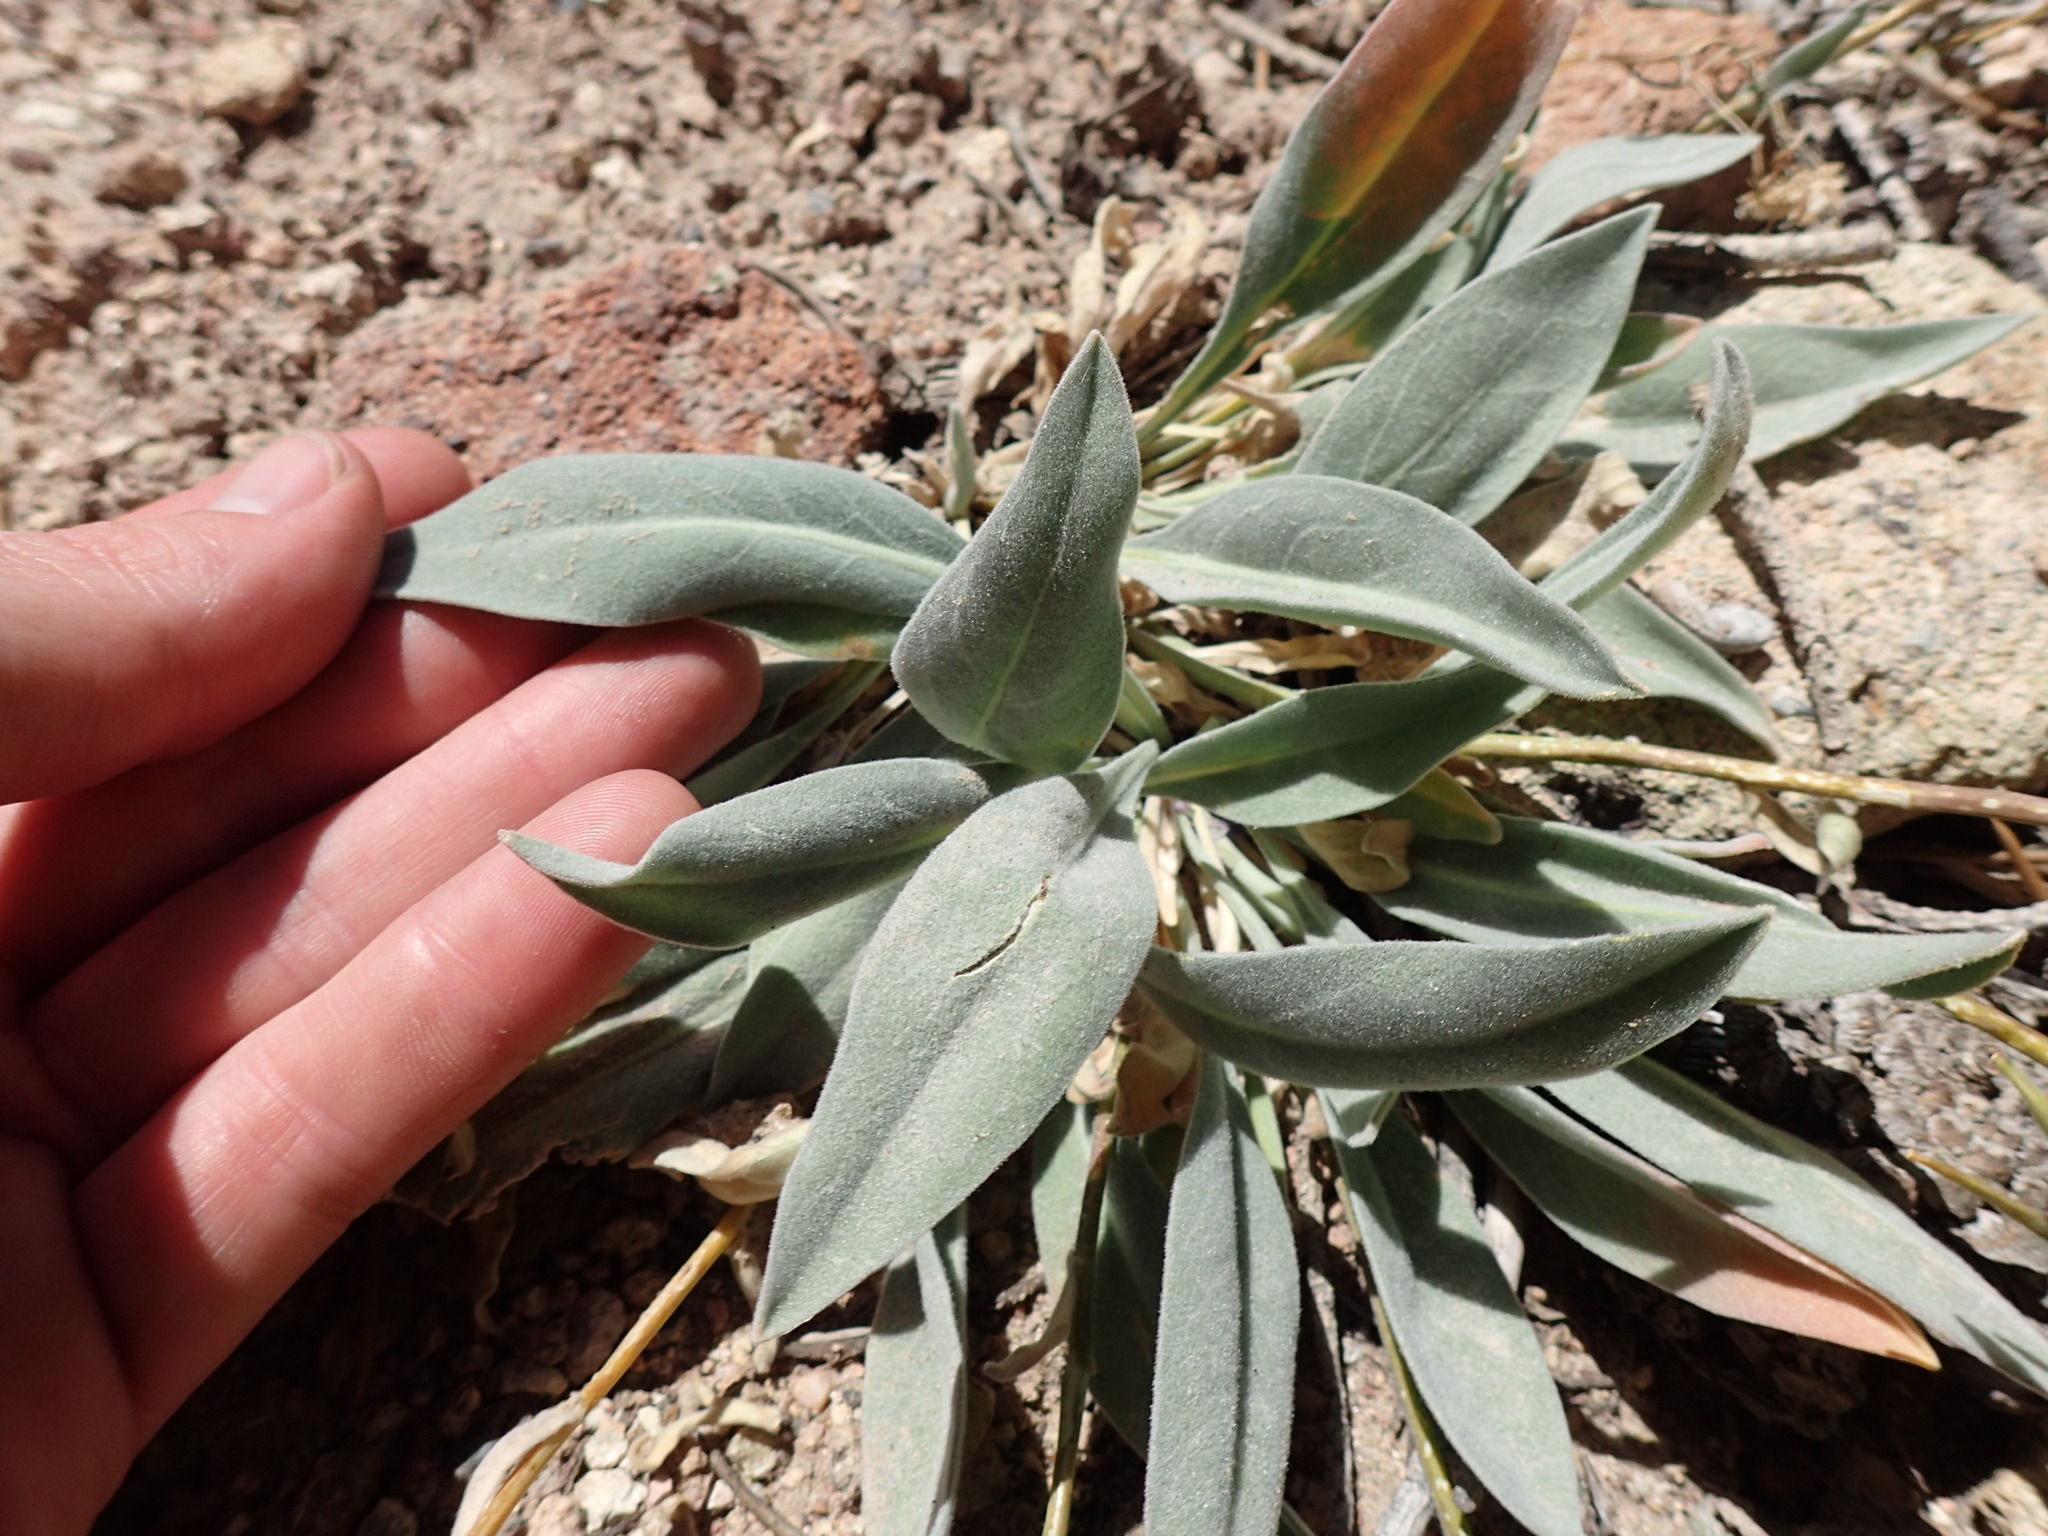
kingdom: Plantae
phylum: Tracheophyta
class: Magnoliopsida
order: Brassicales
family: Brassicaceae
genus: Phoenicaulis
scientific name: Phoenicaulis cheiranthoides
